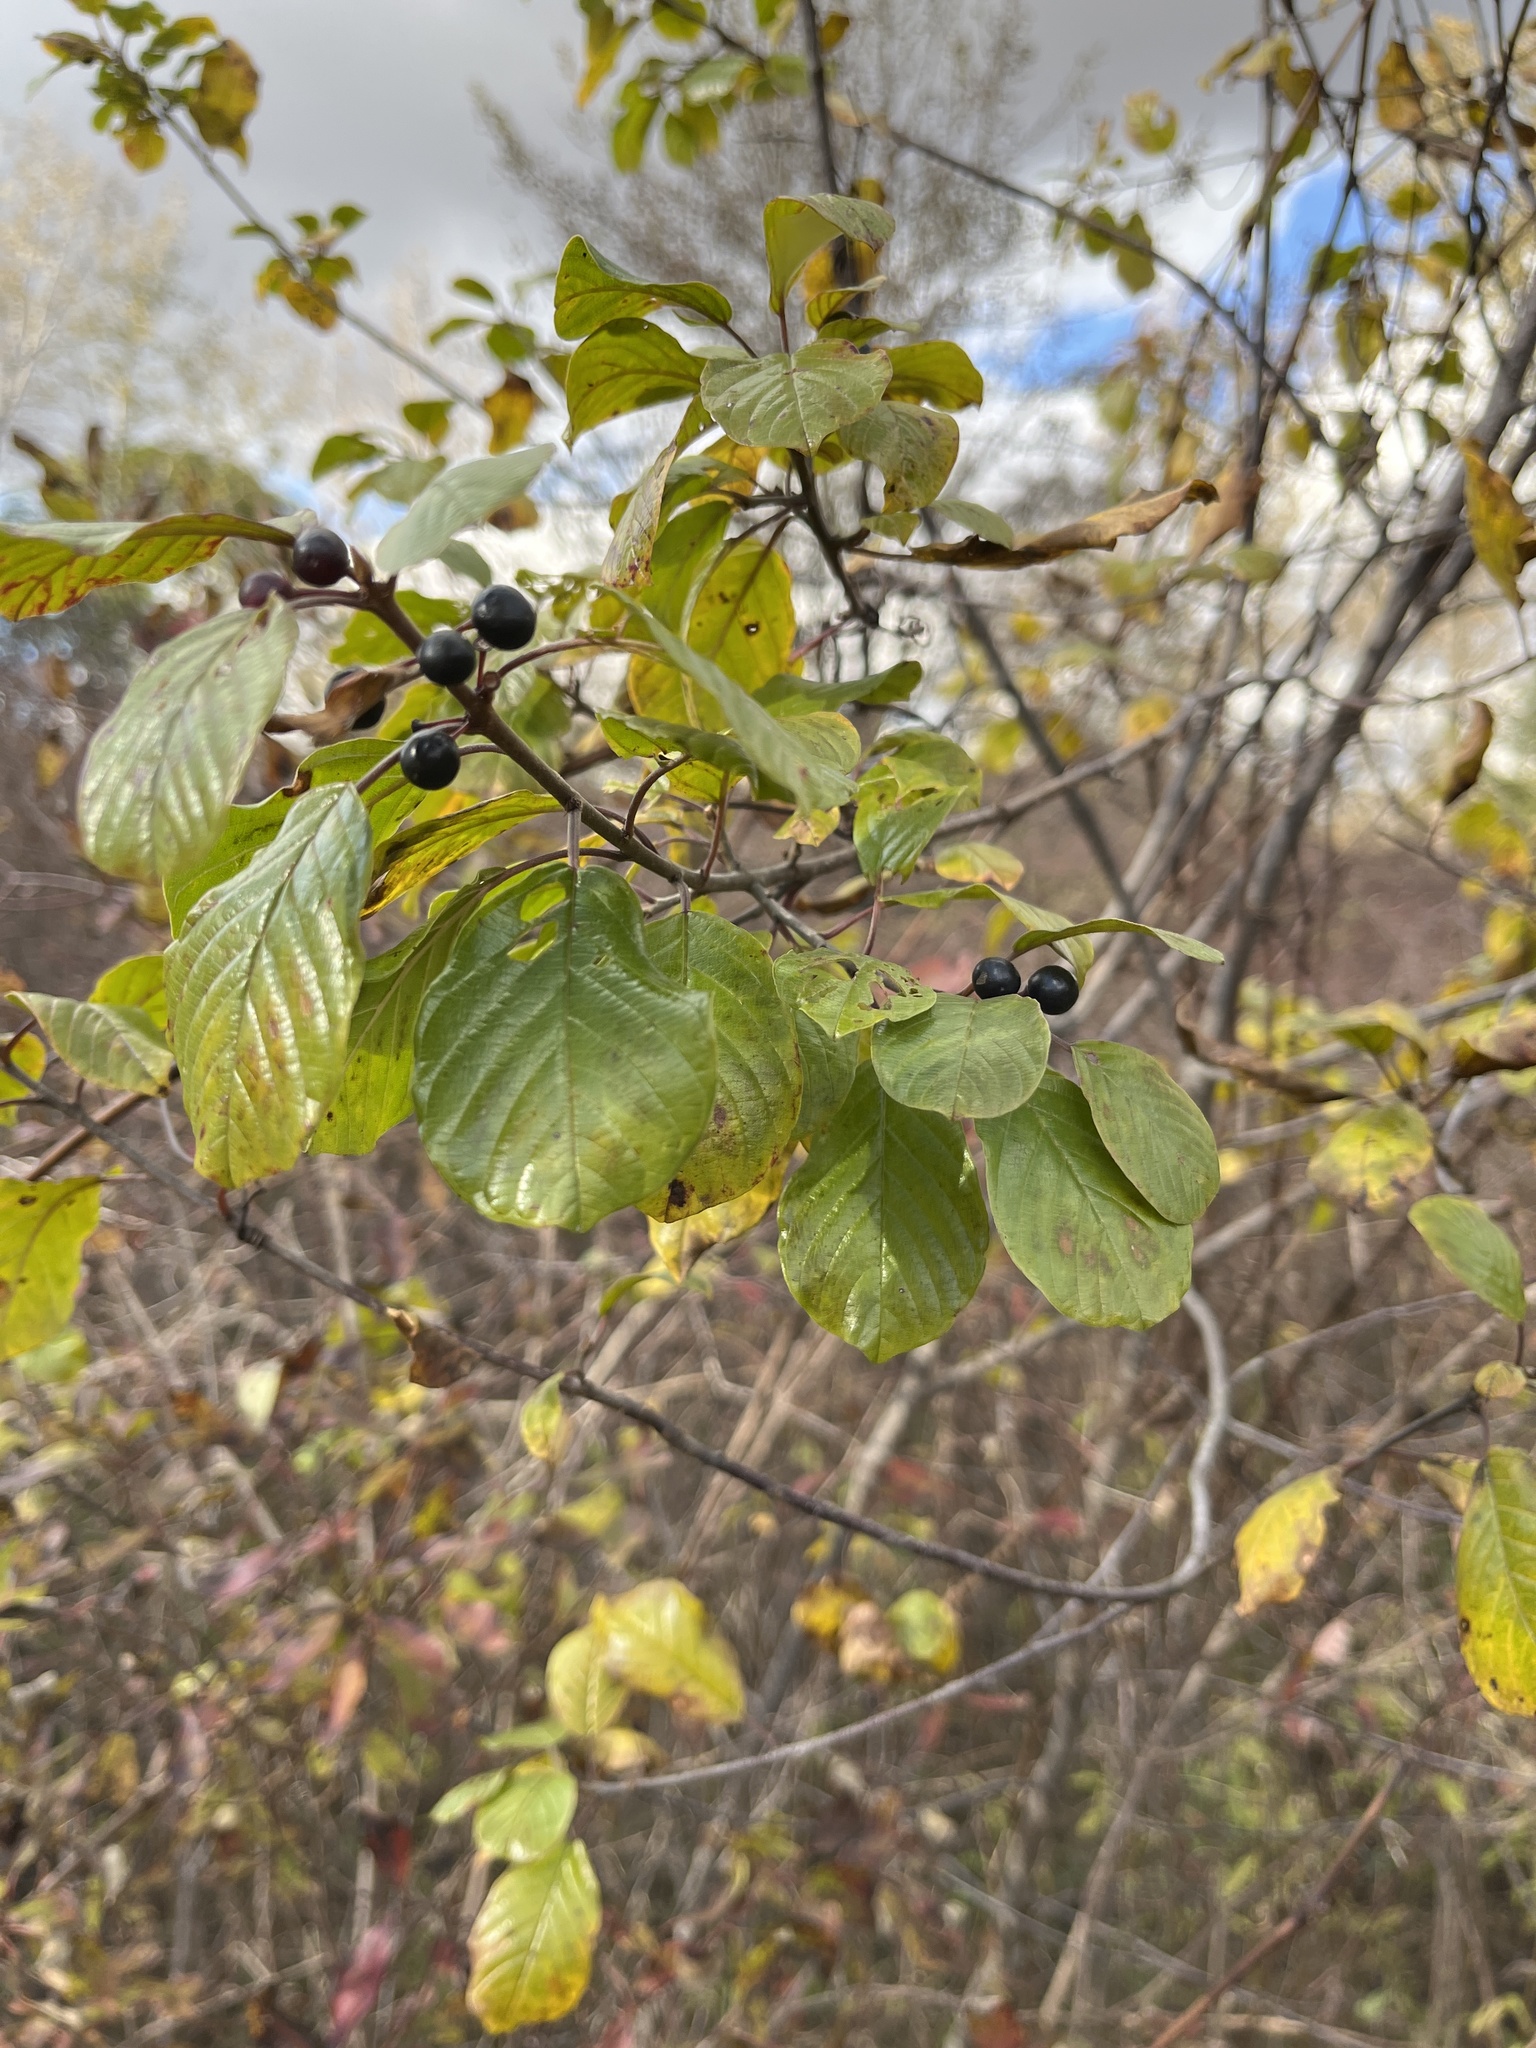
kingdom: Plantae
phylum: Tracheophyta
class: Magnoliopsida
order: Rosales
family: Rhamnaceae
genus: Frangula
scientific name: Frangula alnus
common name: Alder buckthorn
